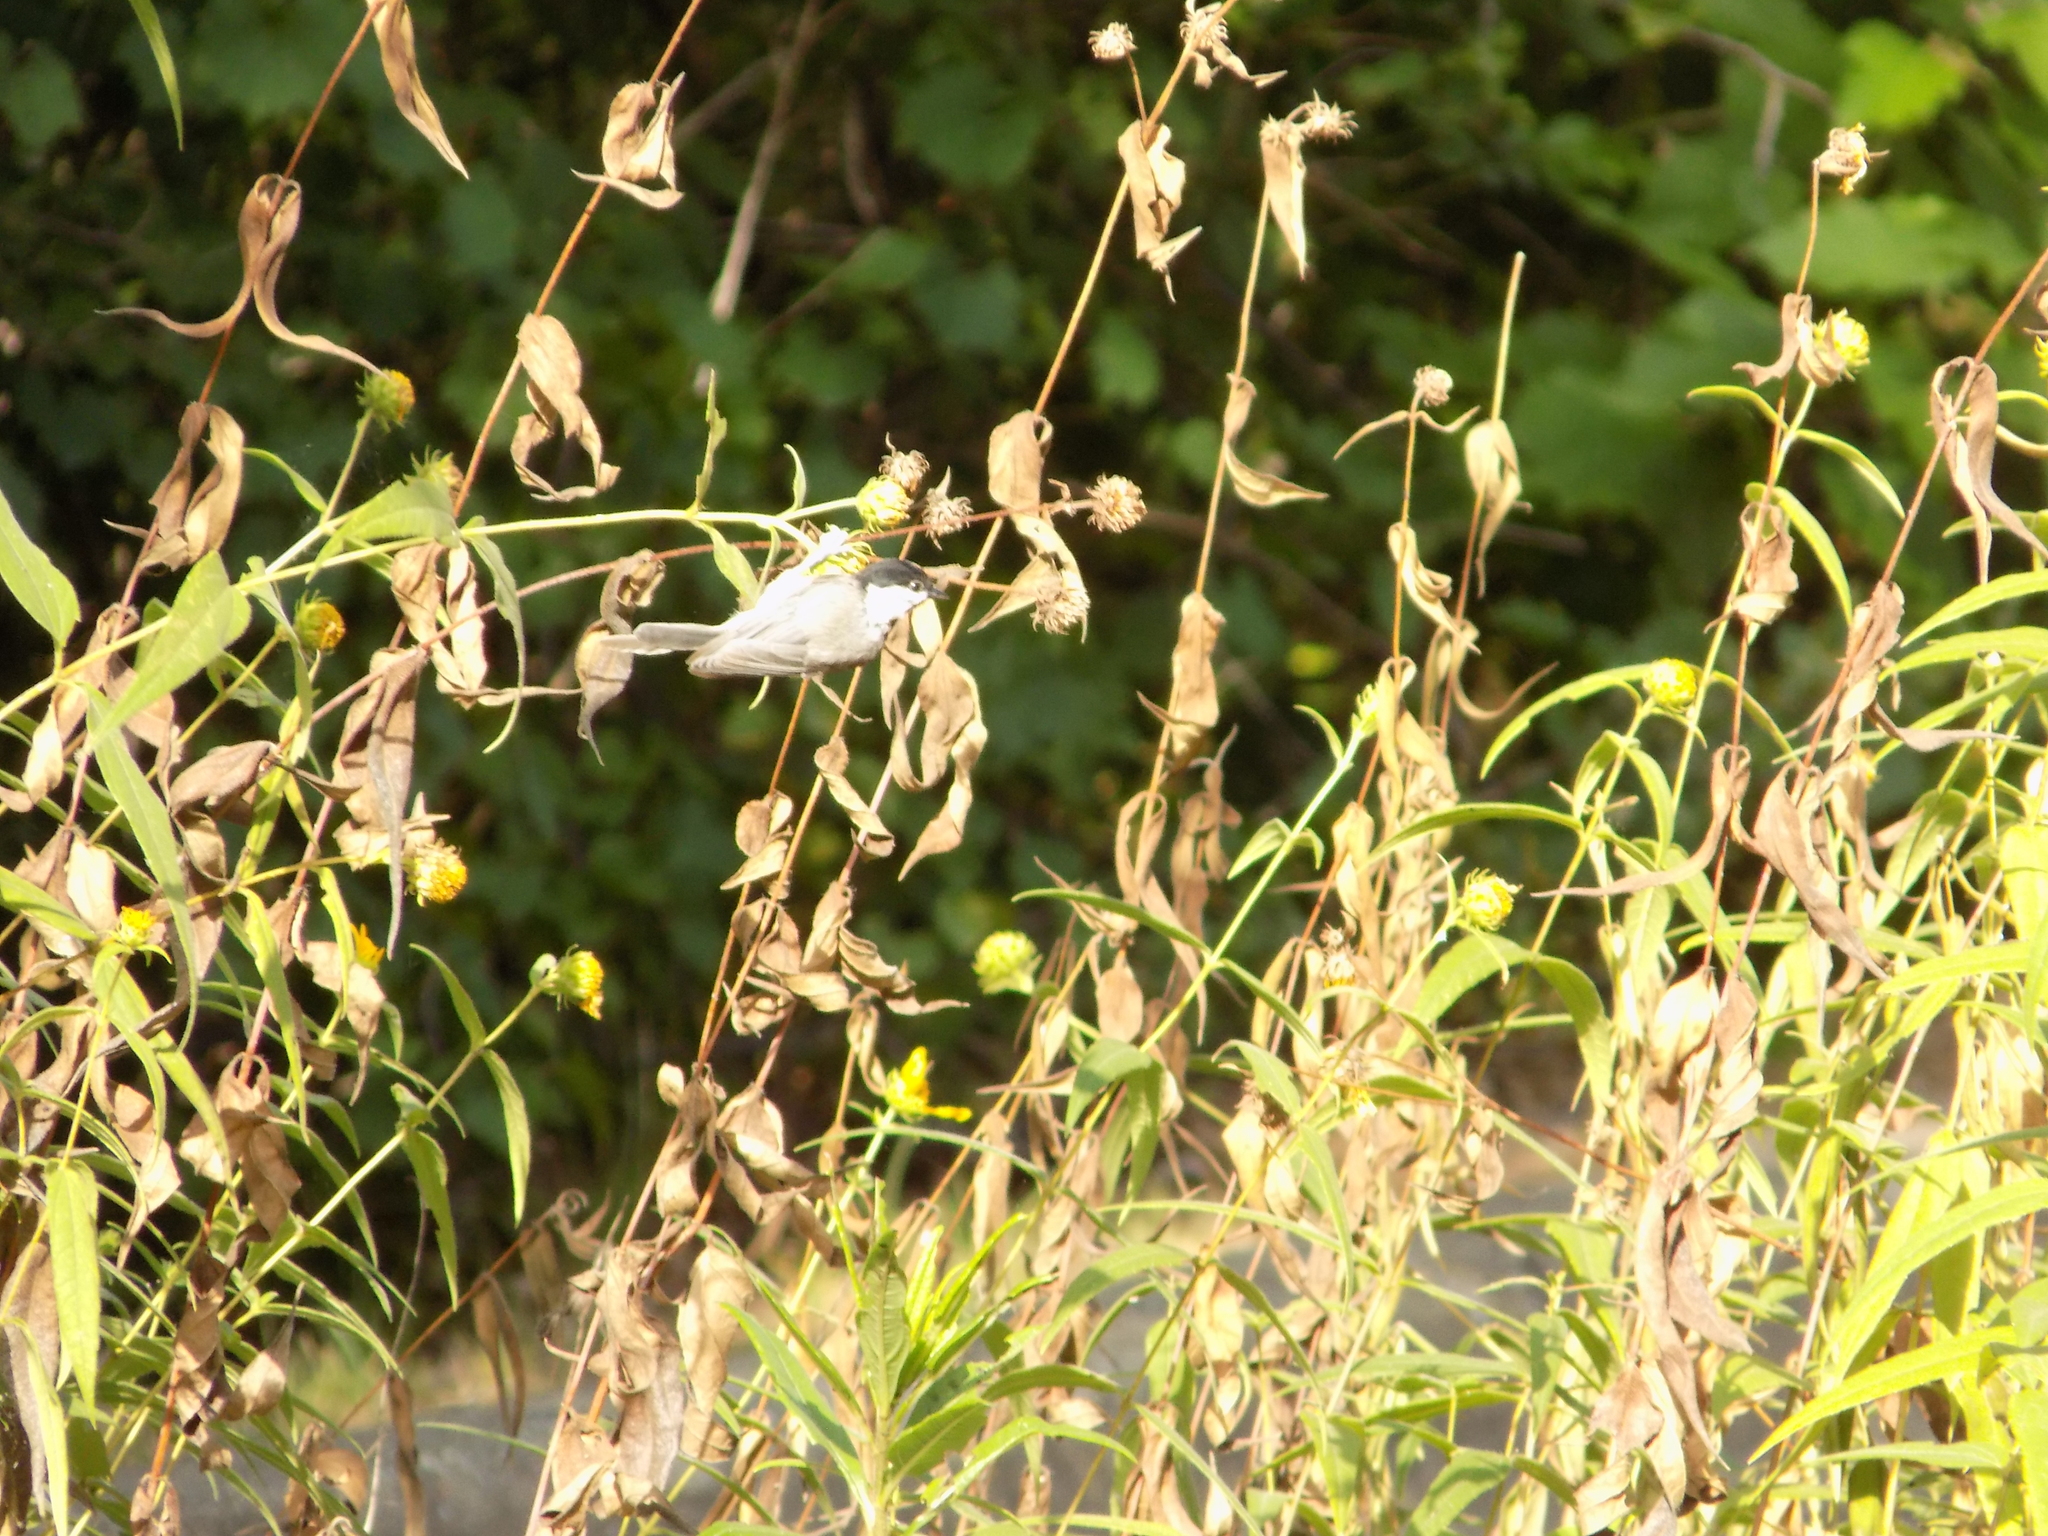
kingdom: Animalia
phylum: Chordata
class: Aves
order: Passeriformes
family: Paridae
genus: Poecile
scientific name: Poecile carolinensis
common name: Carolina chickadee
